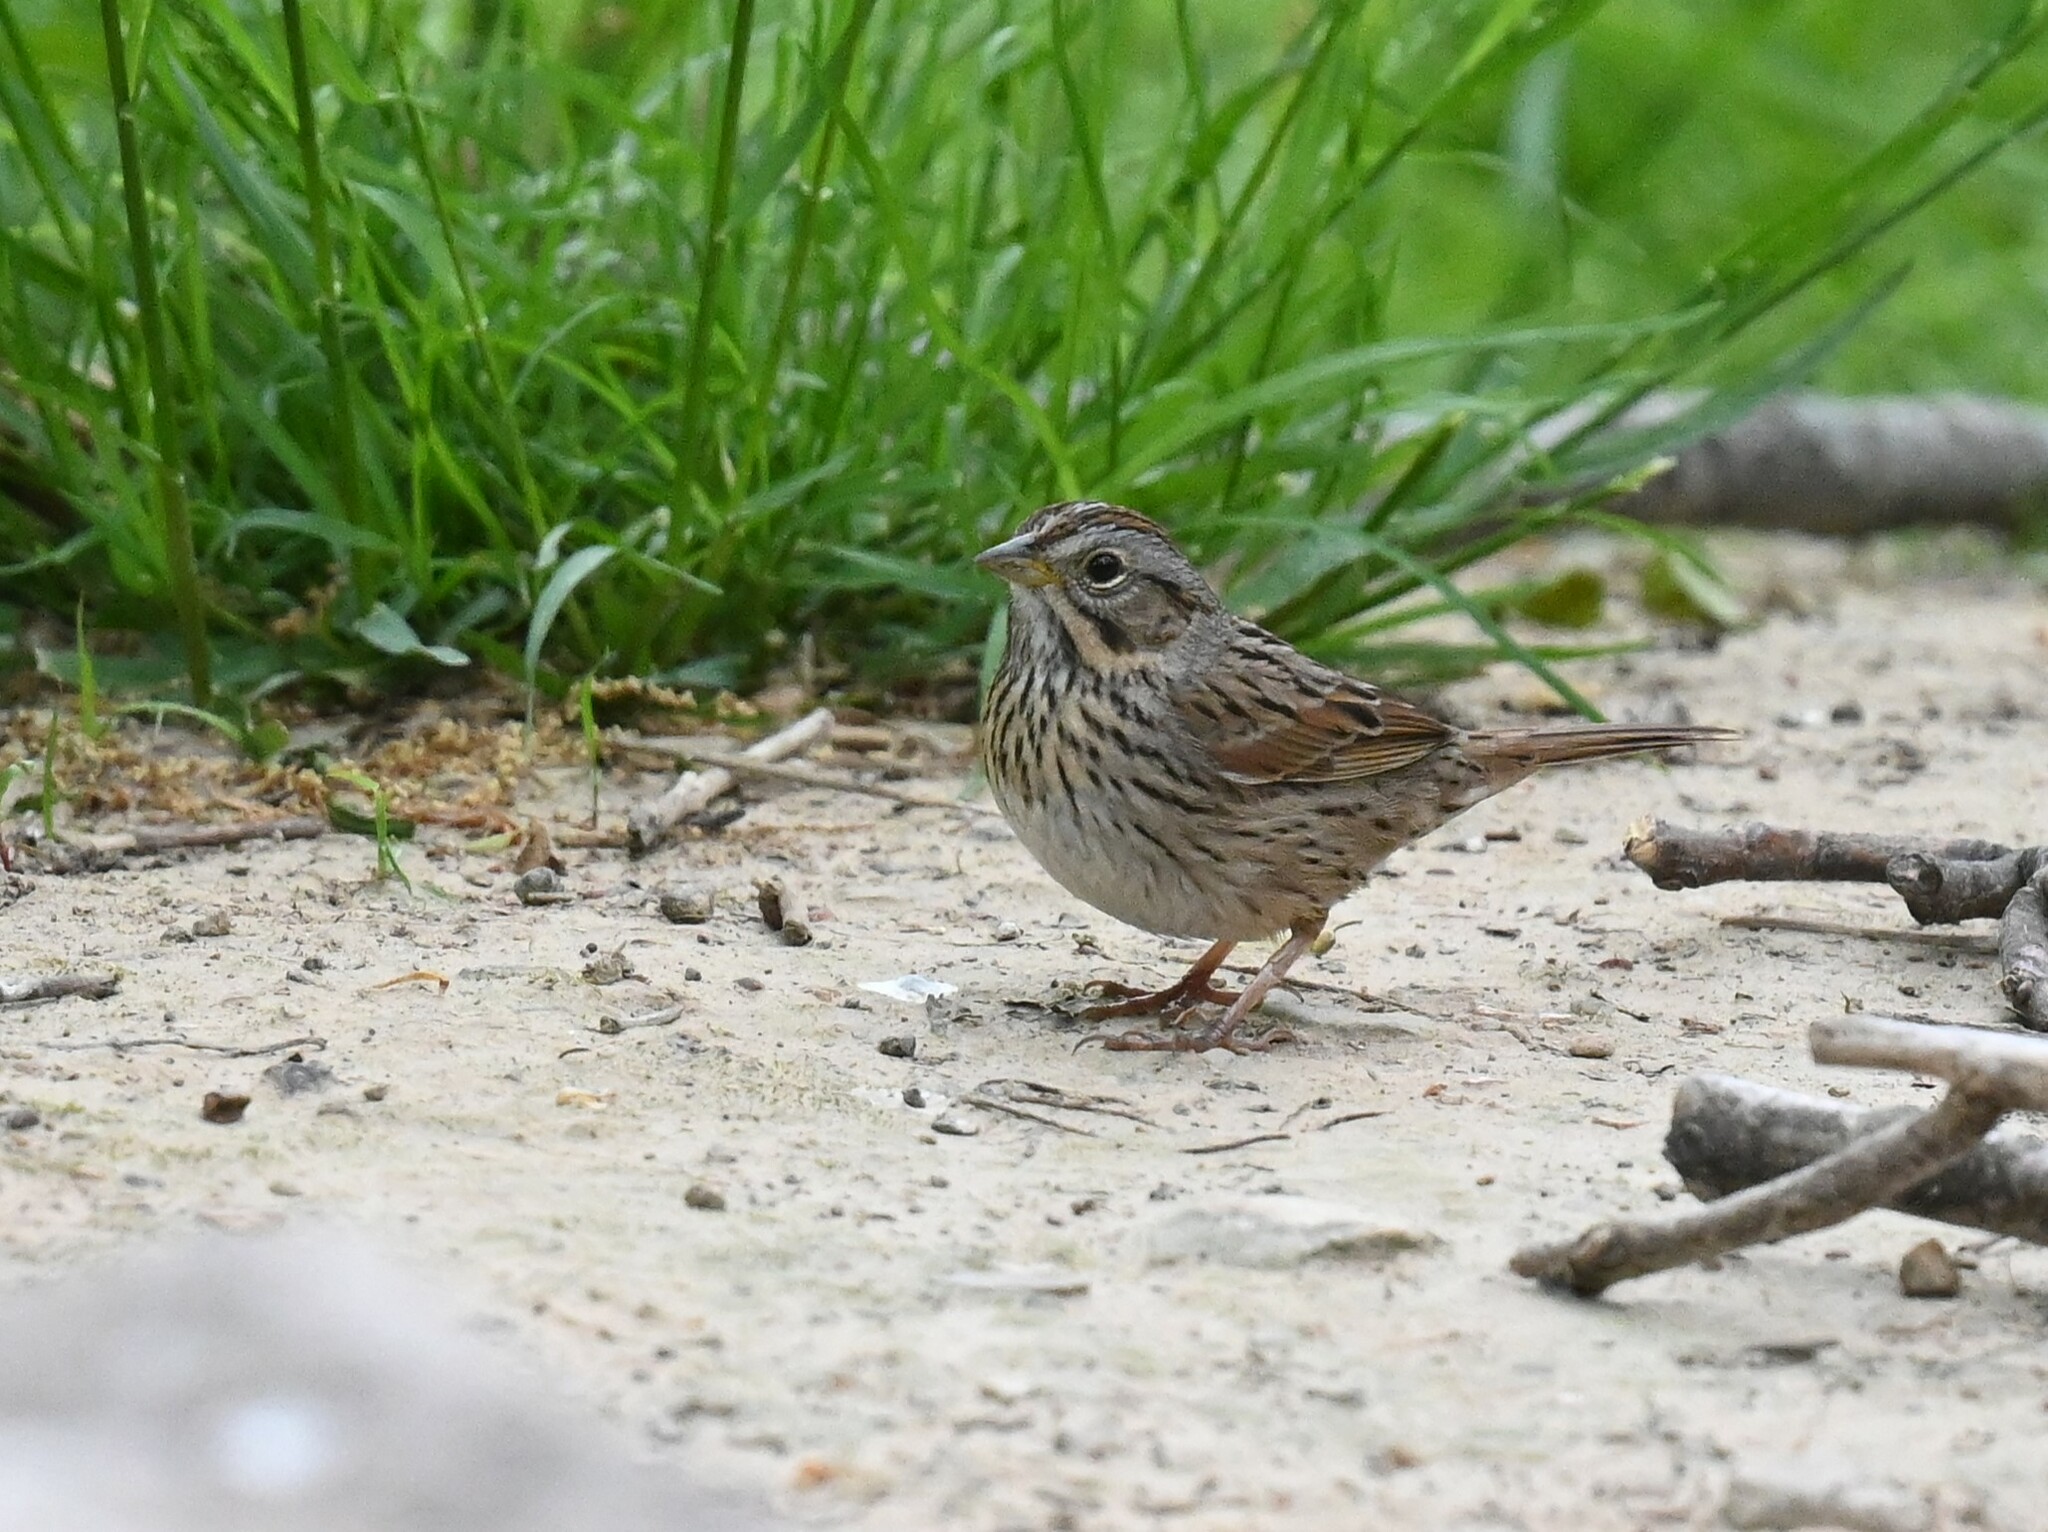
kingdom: Animalia
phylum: Chordata
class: Aves
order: Passeriformes
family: Passerellidae
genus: Melospiza
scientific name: Melospiza lincolnii
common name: Lincoln's sparrow
